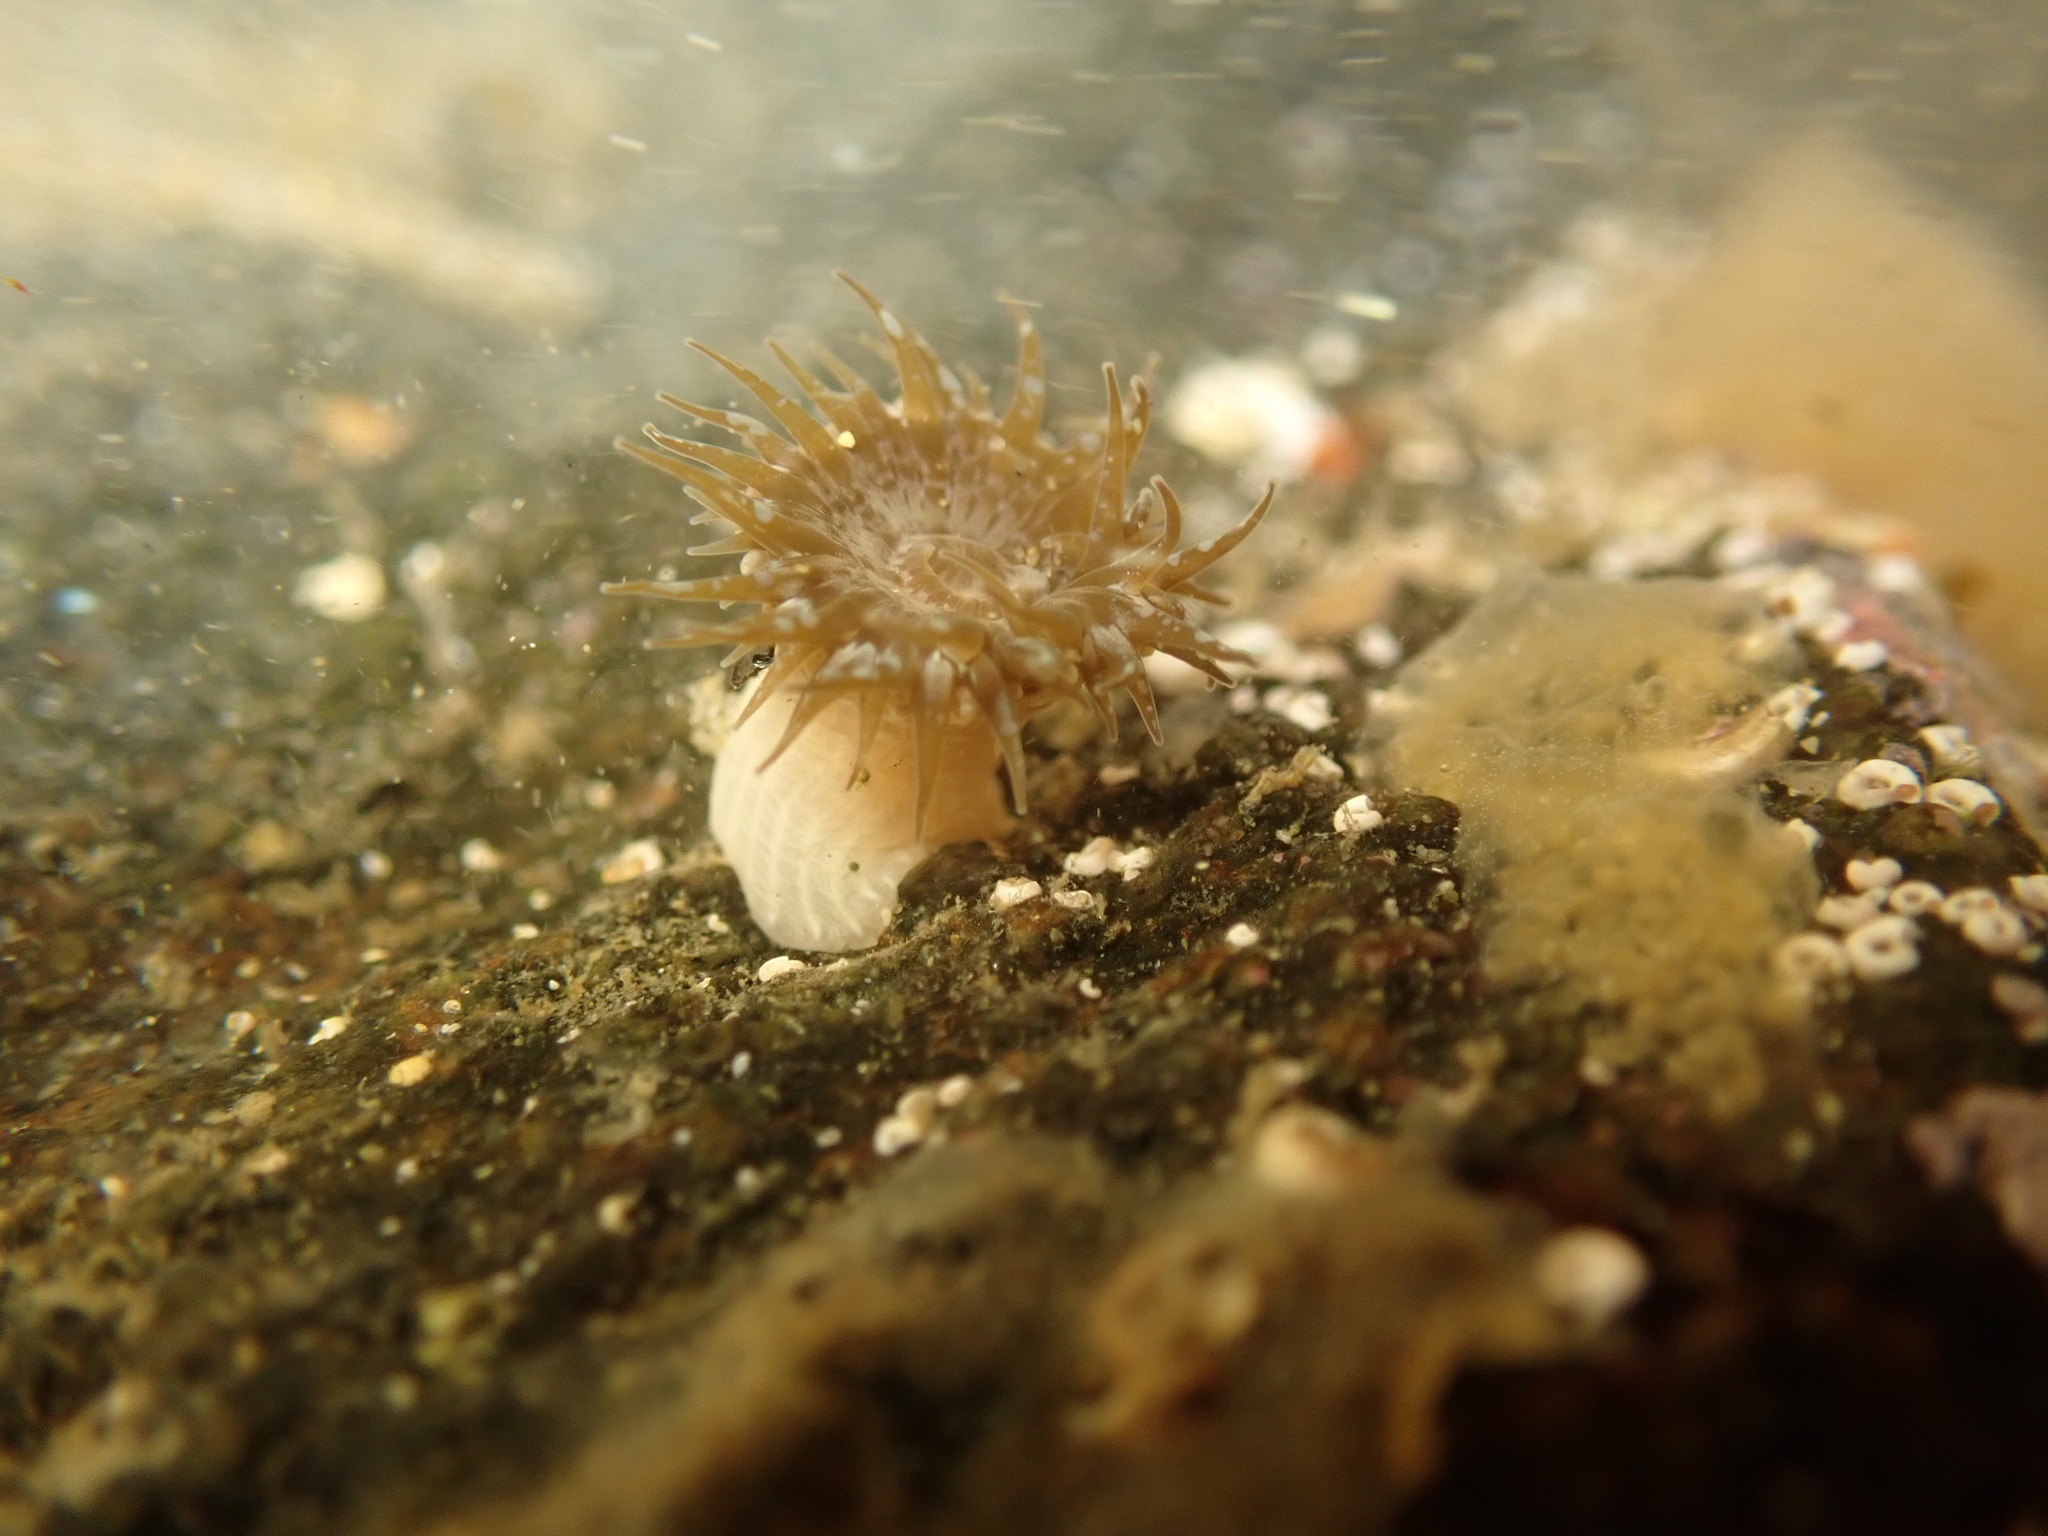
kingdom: Animalia
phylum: Cnidaria
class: Anthozoa
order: Actiniaria
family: Actiniidae
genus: Anthopleura
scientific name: Anthopleura hermaphroditica
